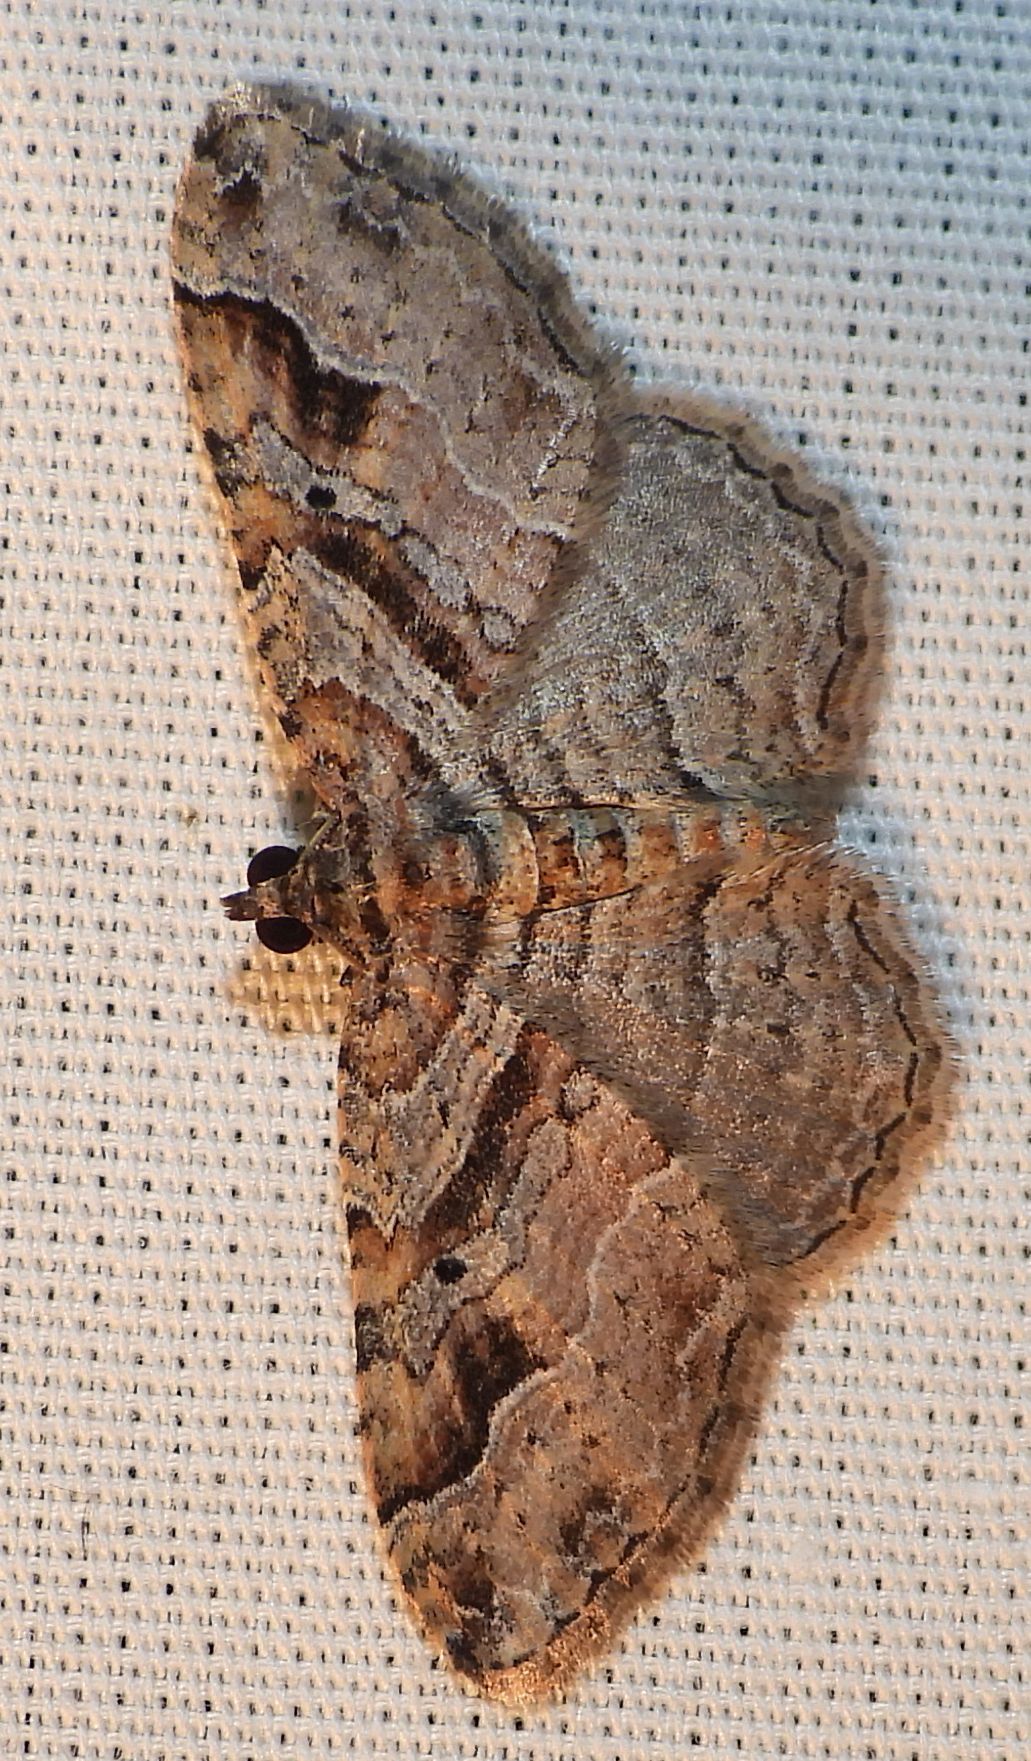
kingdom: Animalia
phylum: Arthropoda
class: Insecta
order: Lepidoptera
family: Geometridae
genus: Costaconvexa
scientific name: Costaconvexa centrostrigaria
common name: Bent-line carpet
